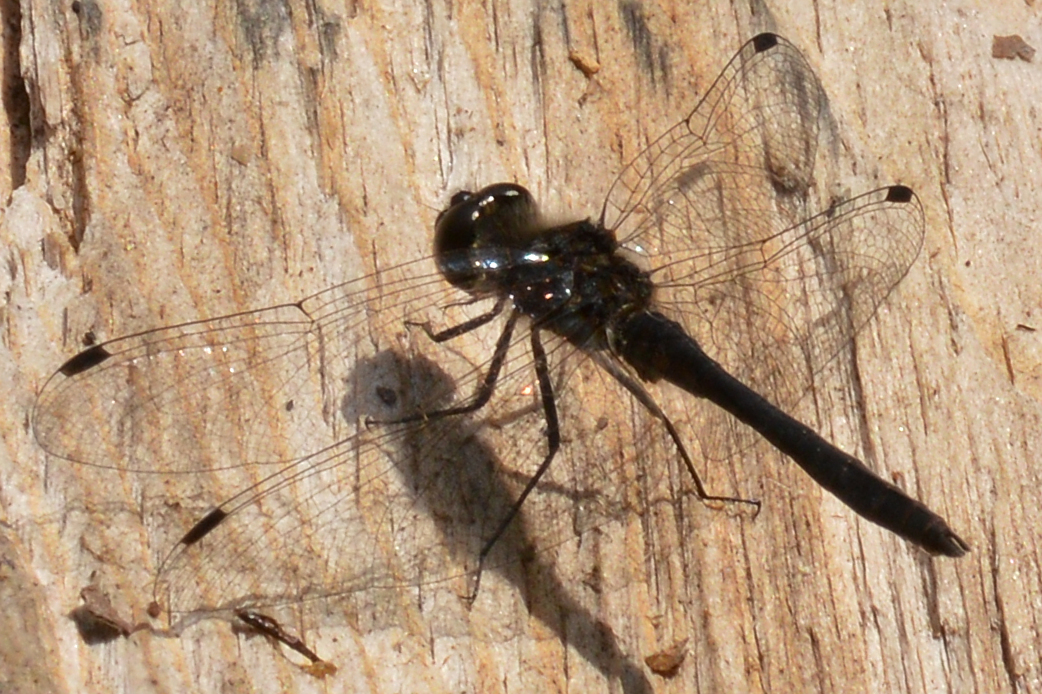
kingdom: Animalia
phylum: Arthropoda
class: Insecta
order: Odonata
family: Libellulidae
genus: Sympetrum
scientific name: Sympetrum danae
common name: Black darter
